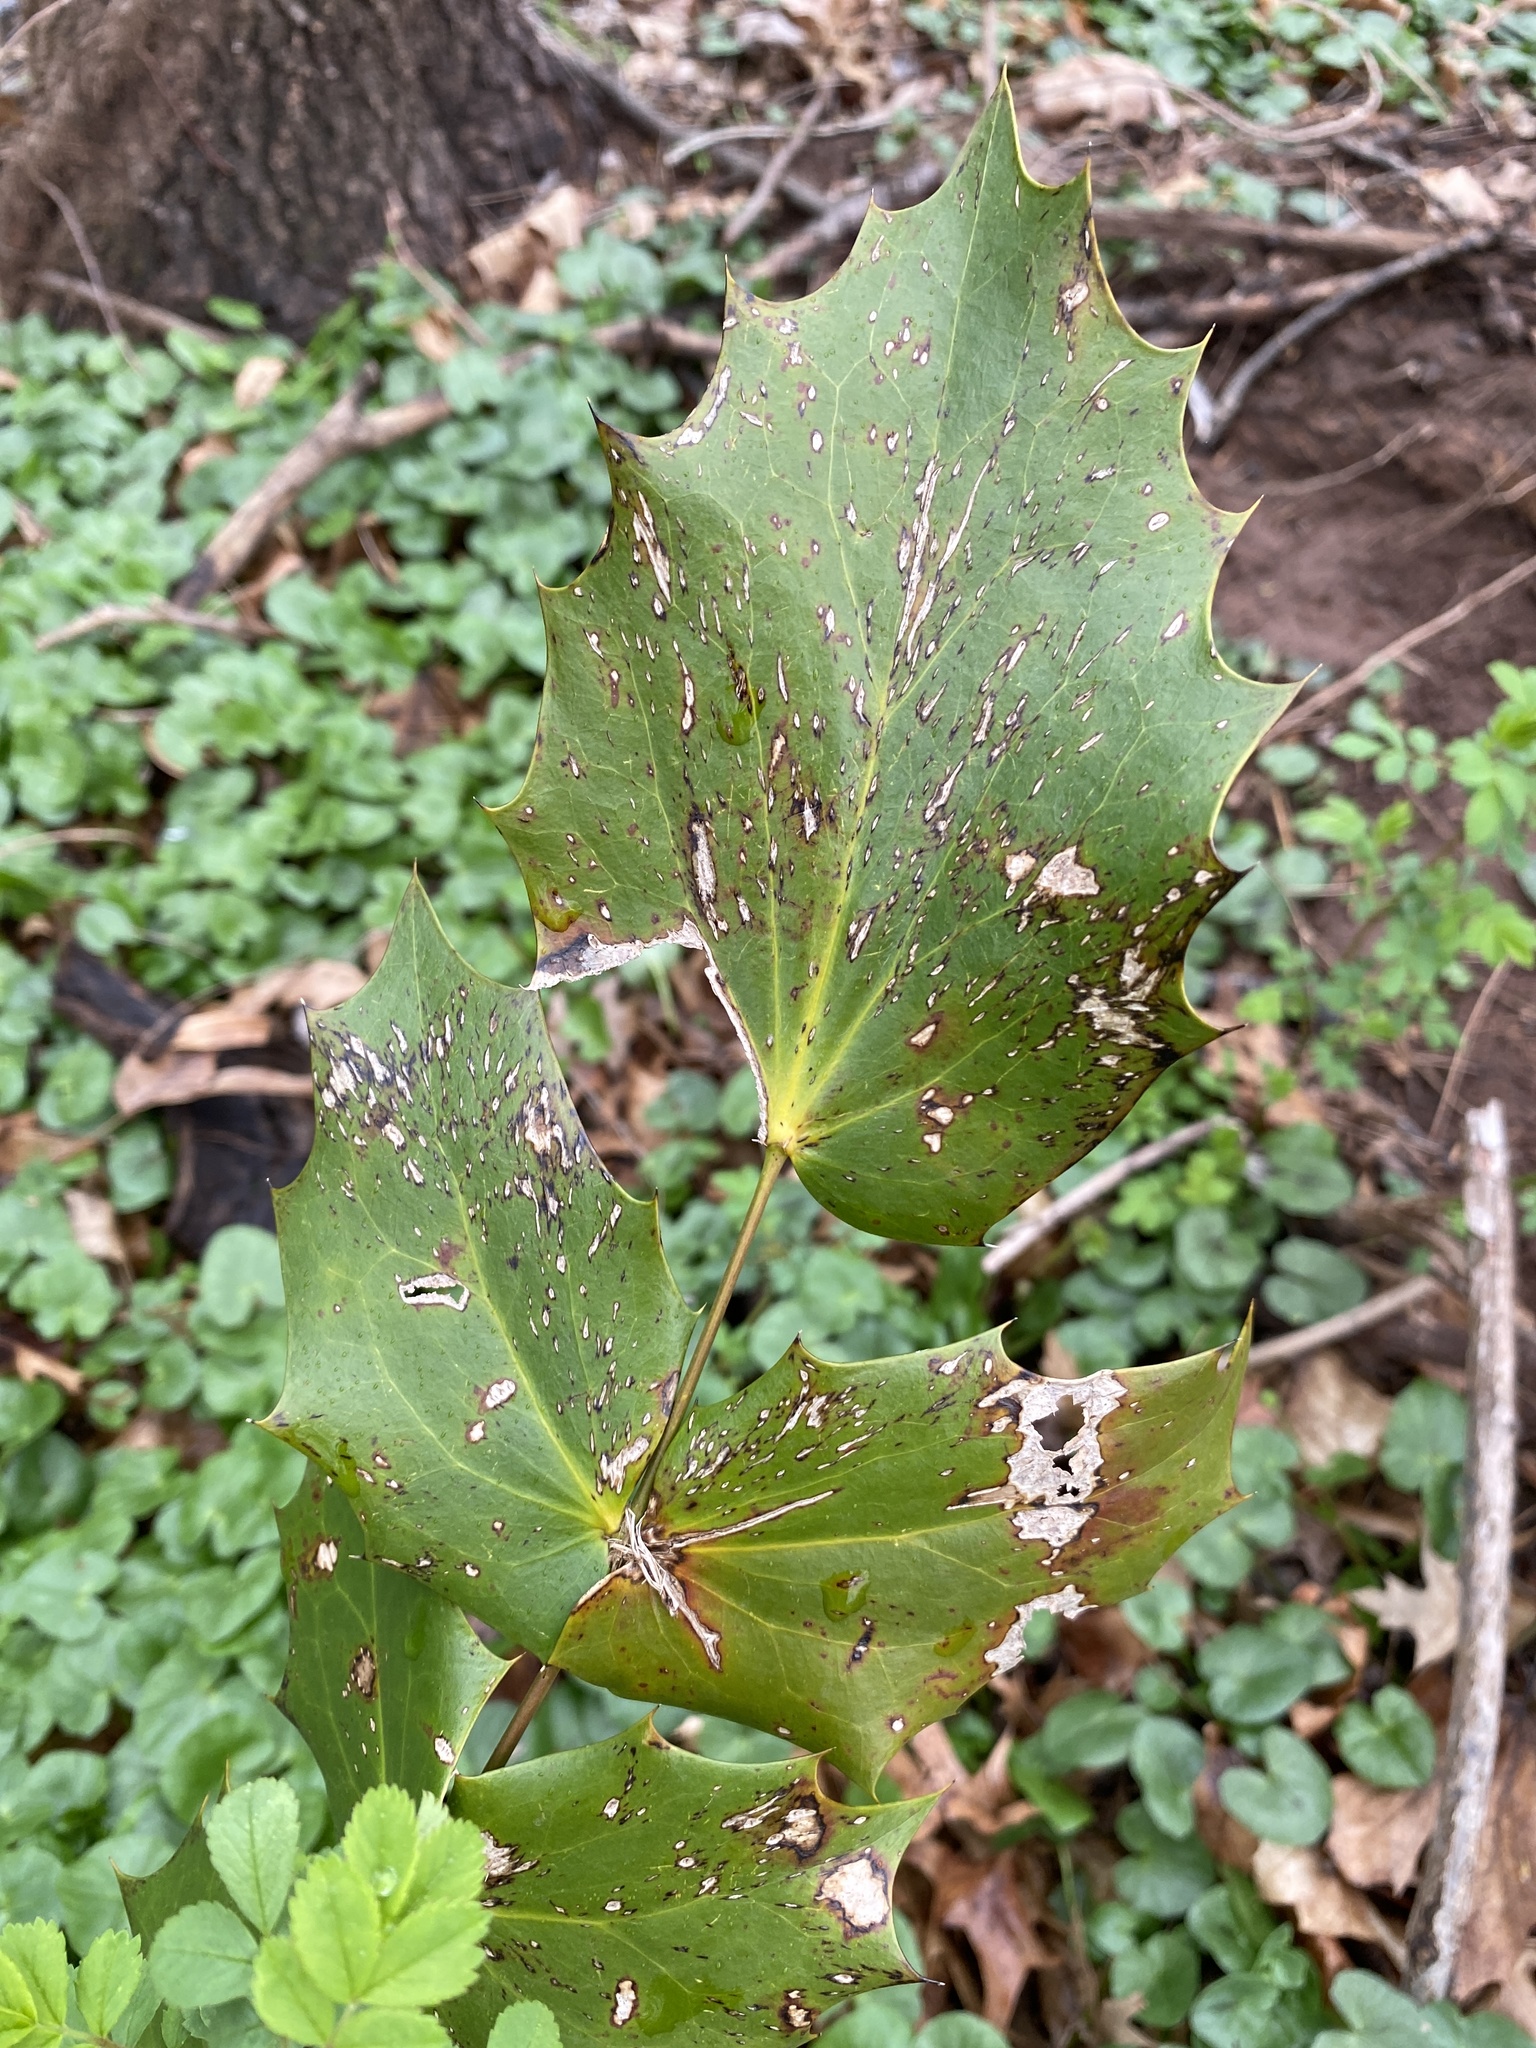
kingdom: Plantae
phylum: Tracheophyta
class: Magnoliopsida
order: Ranunculales
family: Berberidaceae
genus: Mahonia
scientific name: Mahonia bealei
